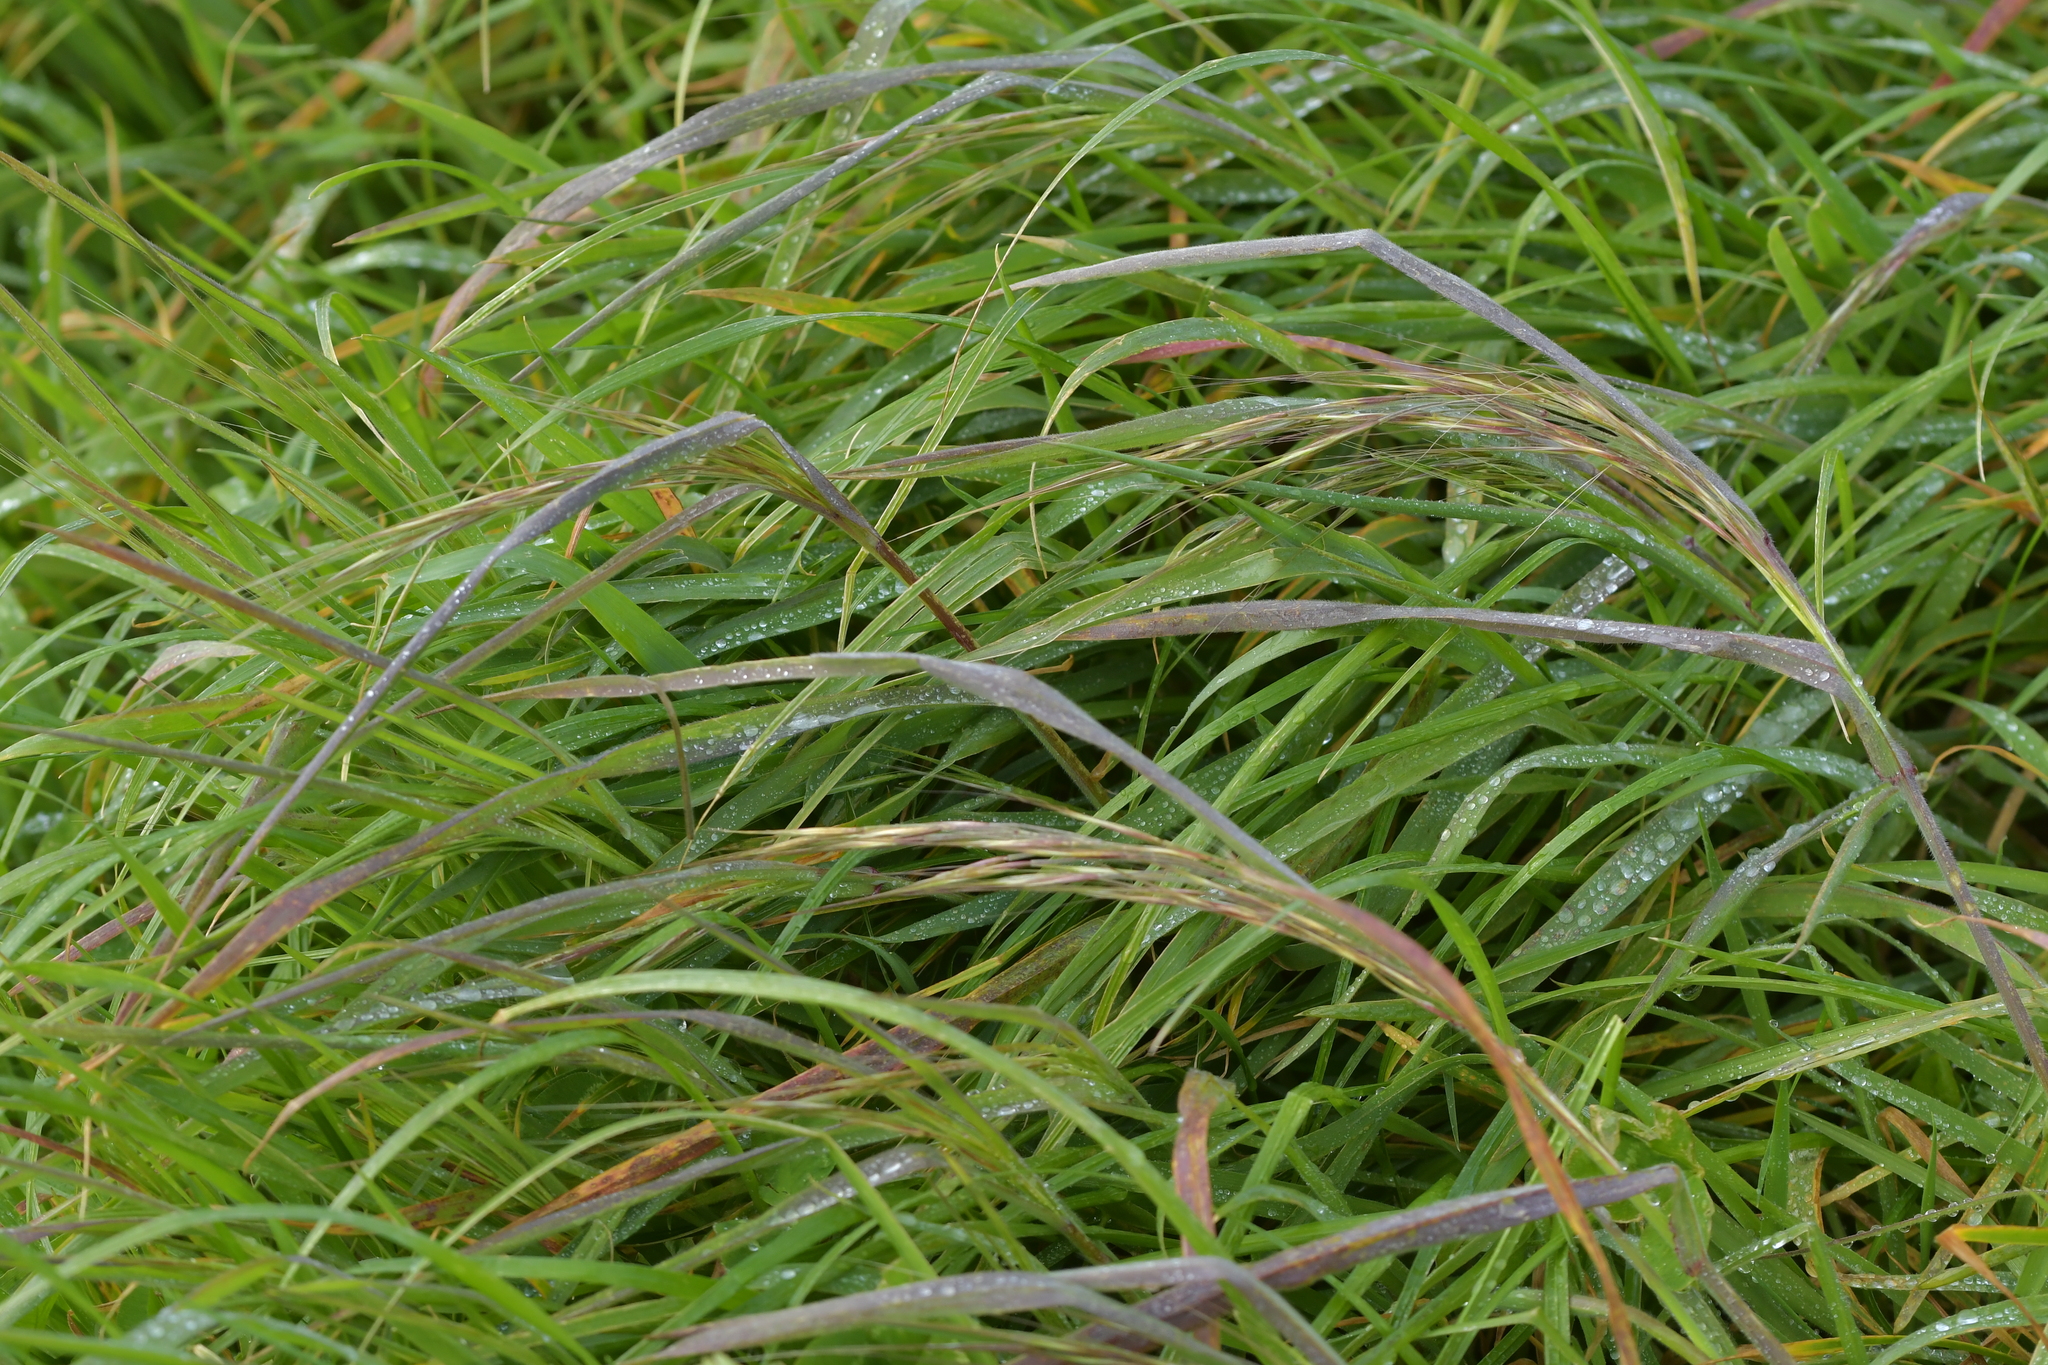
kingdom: Plantae
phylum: Tracheophyta
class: Liliopsida
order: Poales
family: Poaceae
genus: Bromus
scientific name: Bromus diandrus
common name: Ripgut brome
